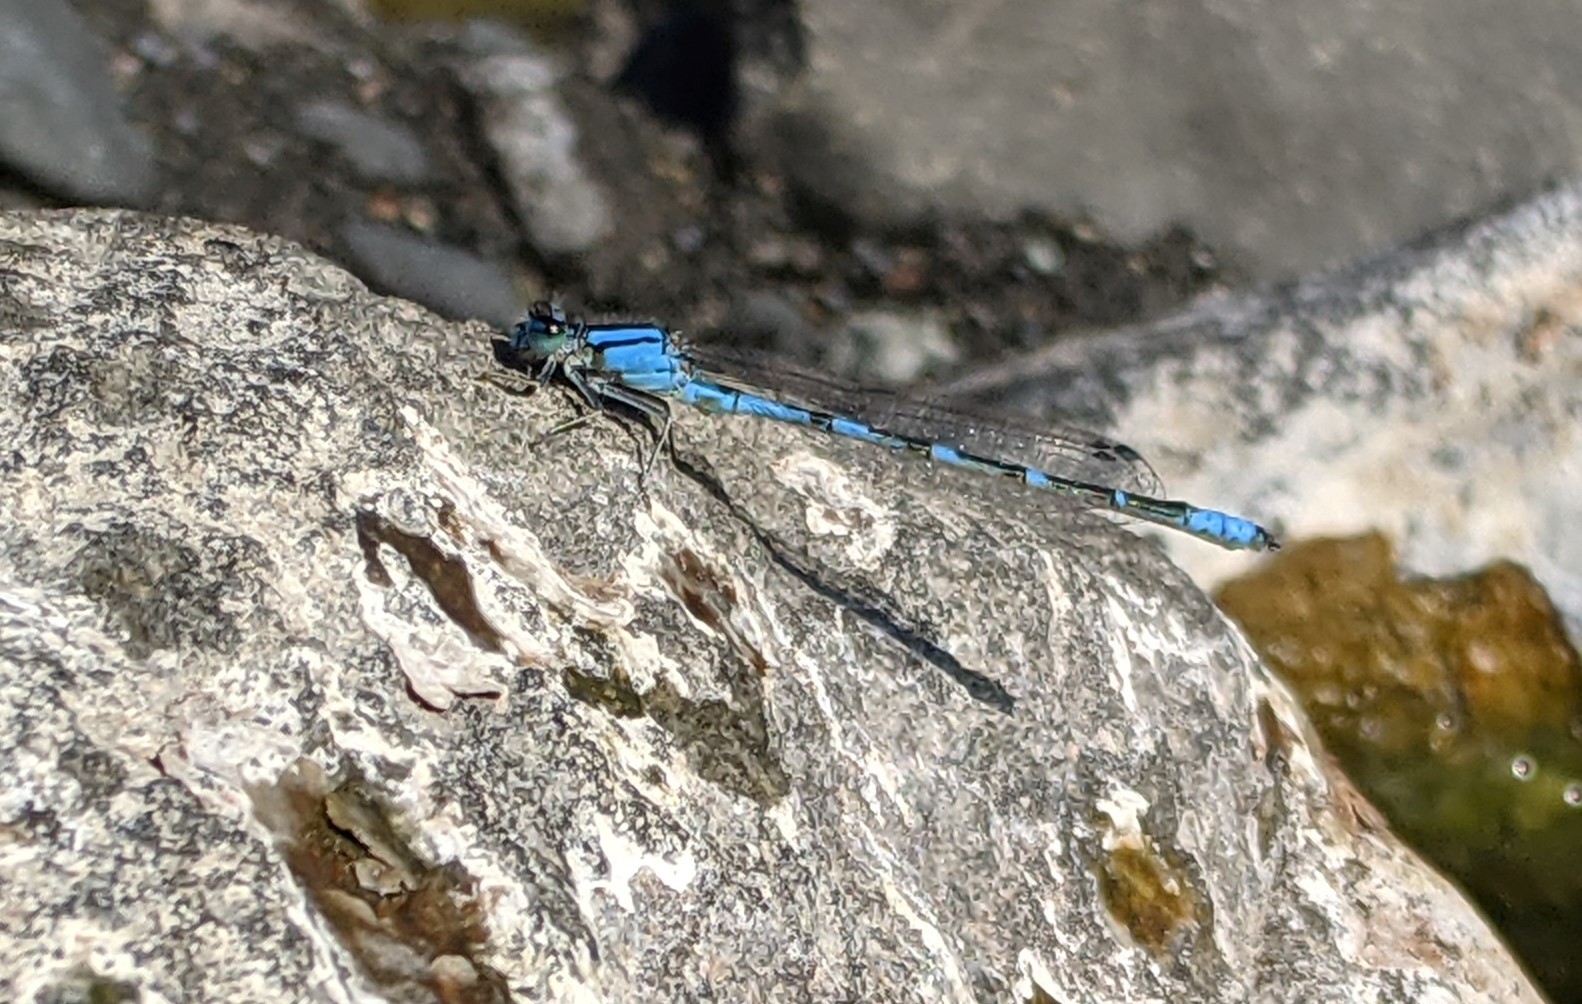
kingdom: Animalia
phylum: Arthropoda
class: Insecta
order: Odonata
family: Coenagrionidae
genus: Enallagma
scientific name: Enallagma anna
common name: River bluet
